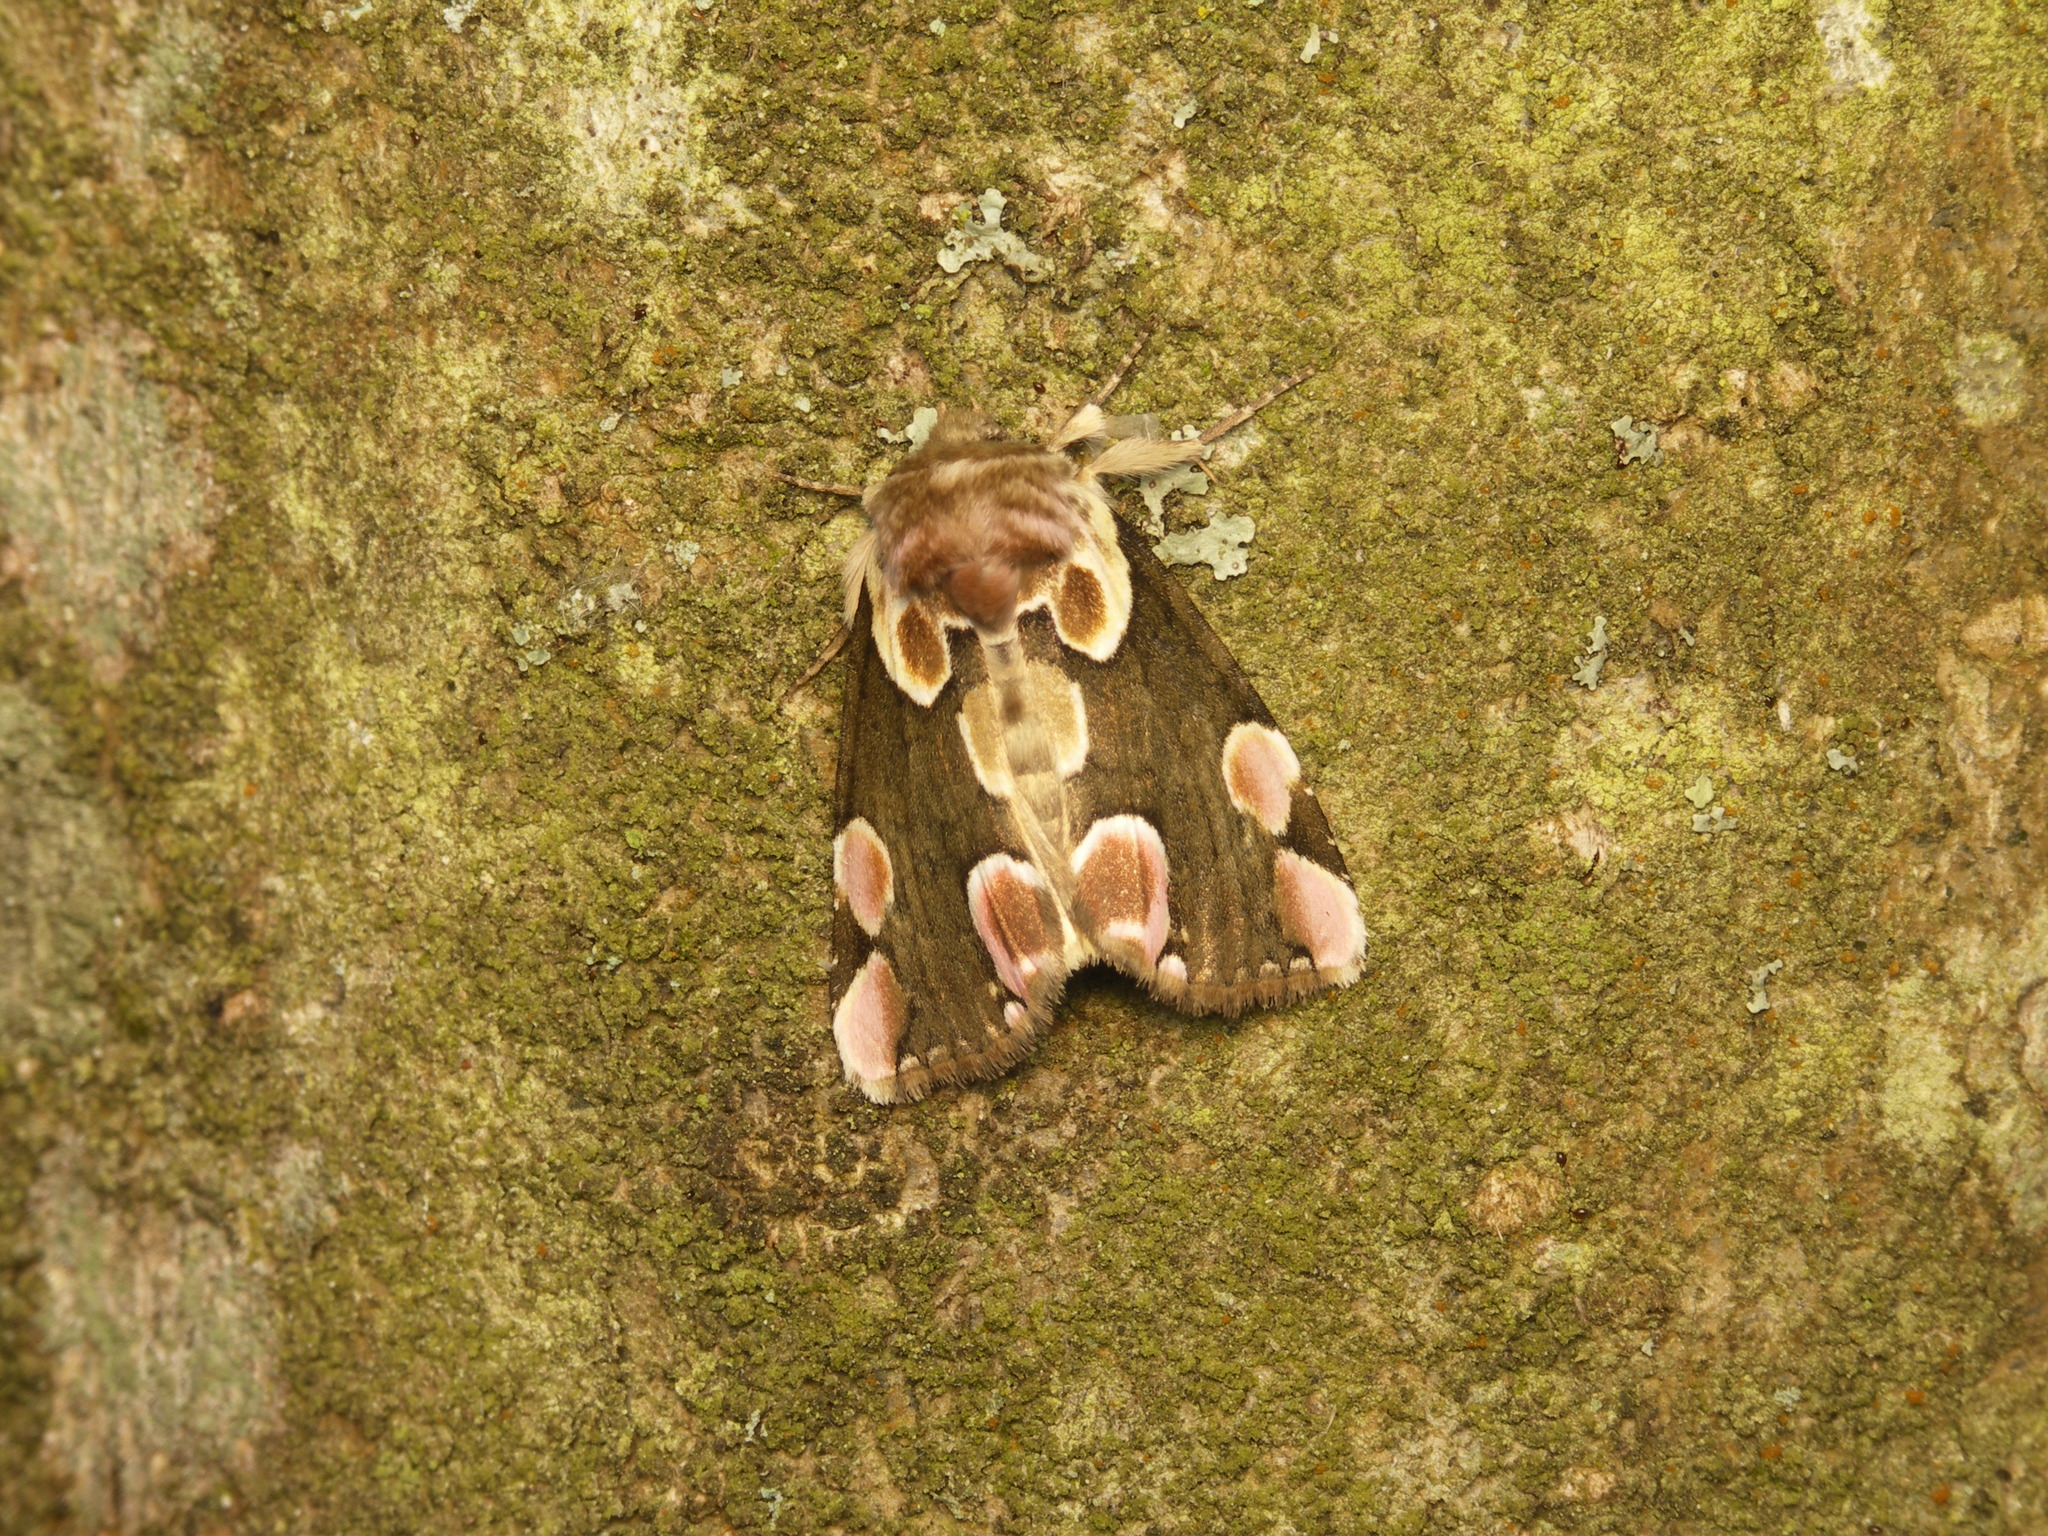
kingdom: Animalia
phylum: Arthropoda
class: Insecta
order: Lepidoptera
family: Drepanidae
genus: Thyatira
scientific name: Thyatira batis
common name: Peach blossom
